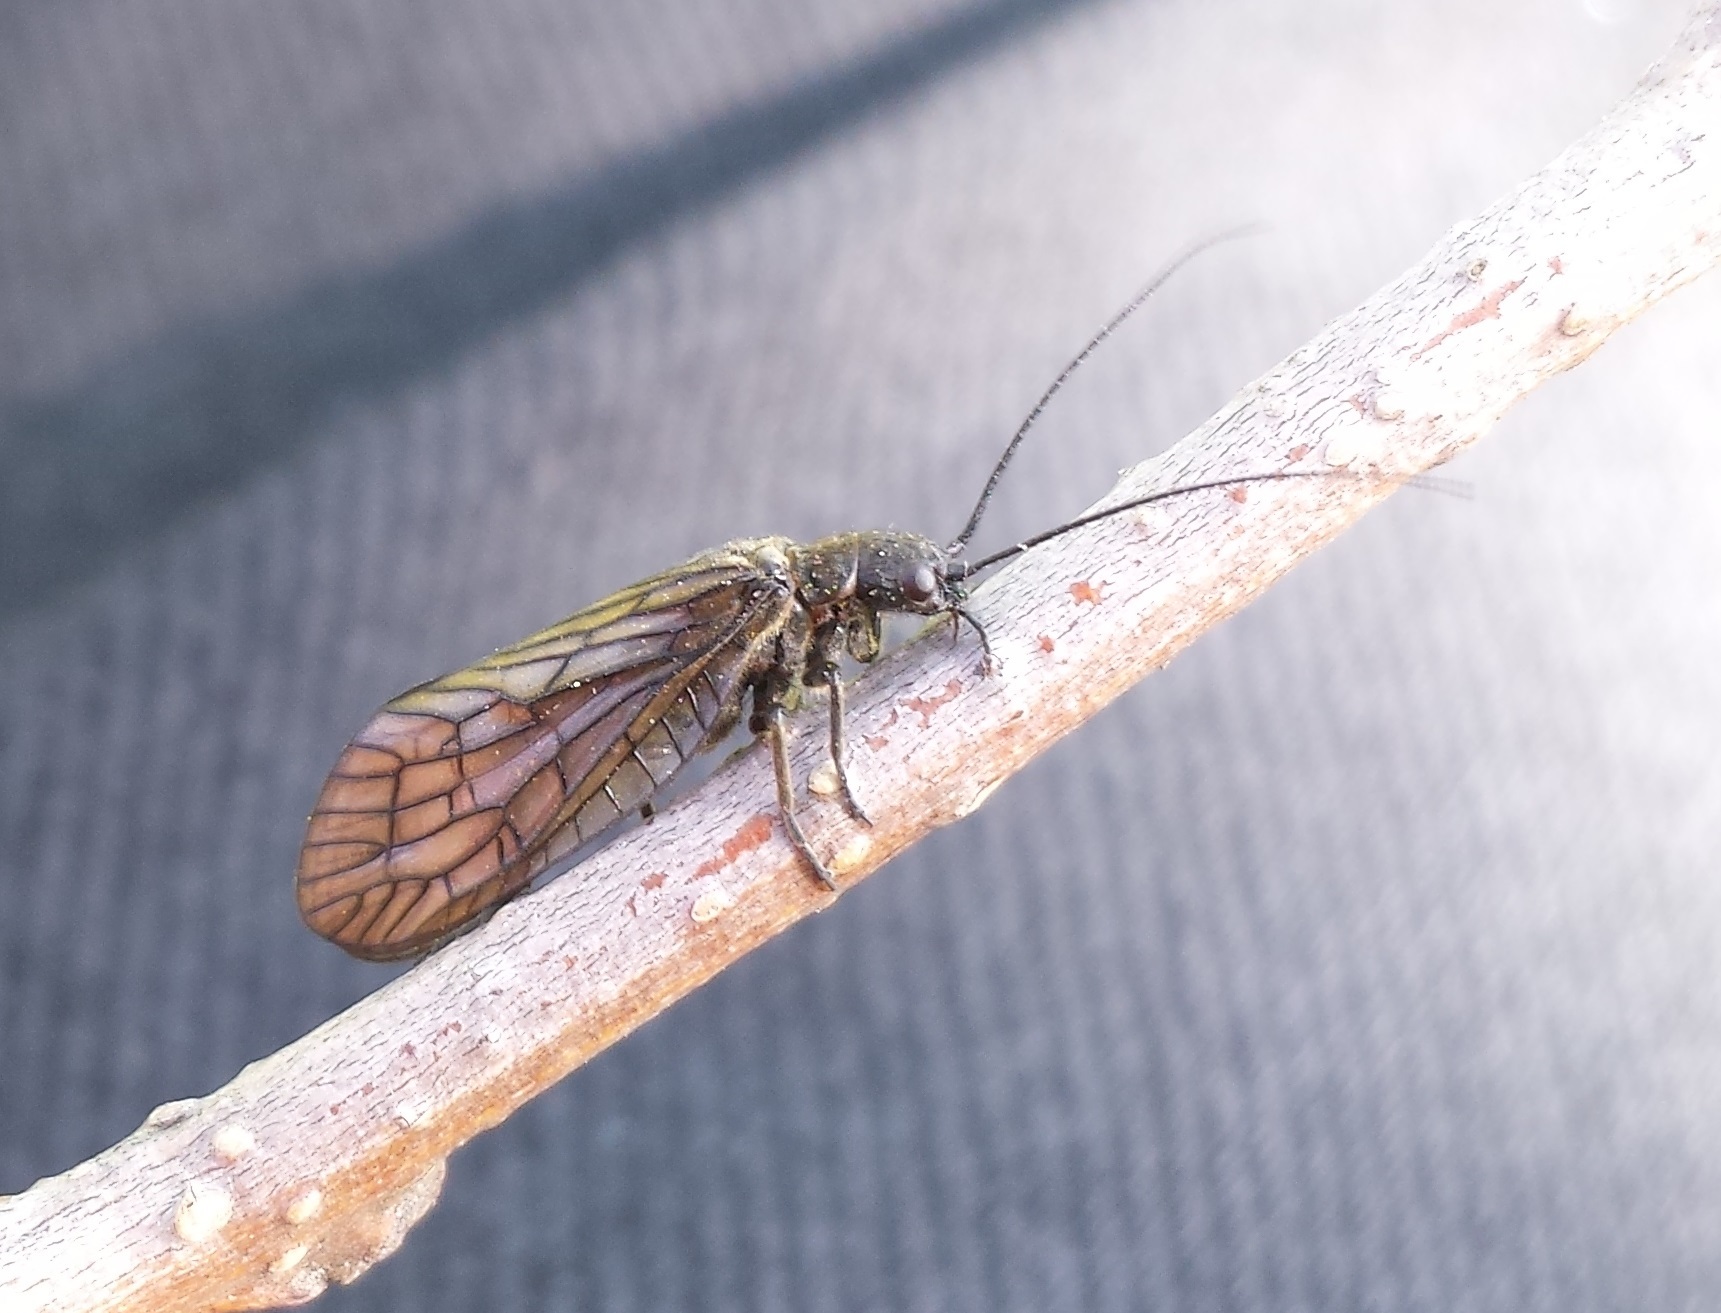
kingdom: Animalia
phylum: Arthropoda
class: Insecta
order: Megaloptera
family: Sialidae
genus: Sialis
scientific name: Sialis
